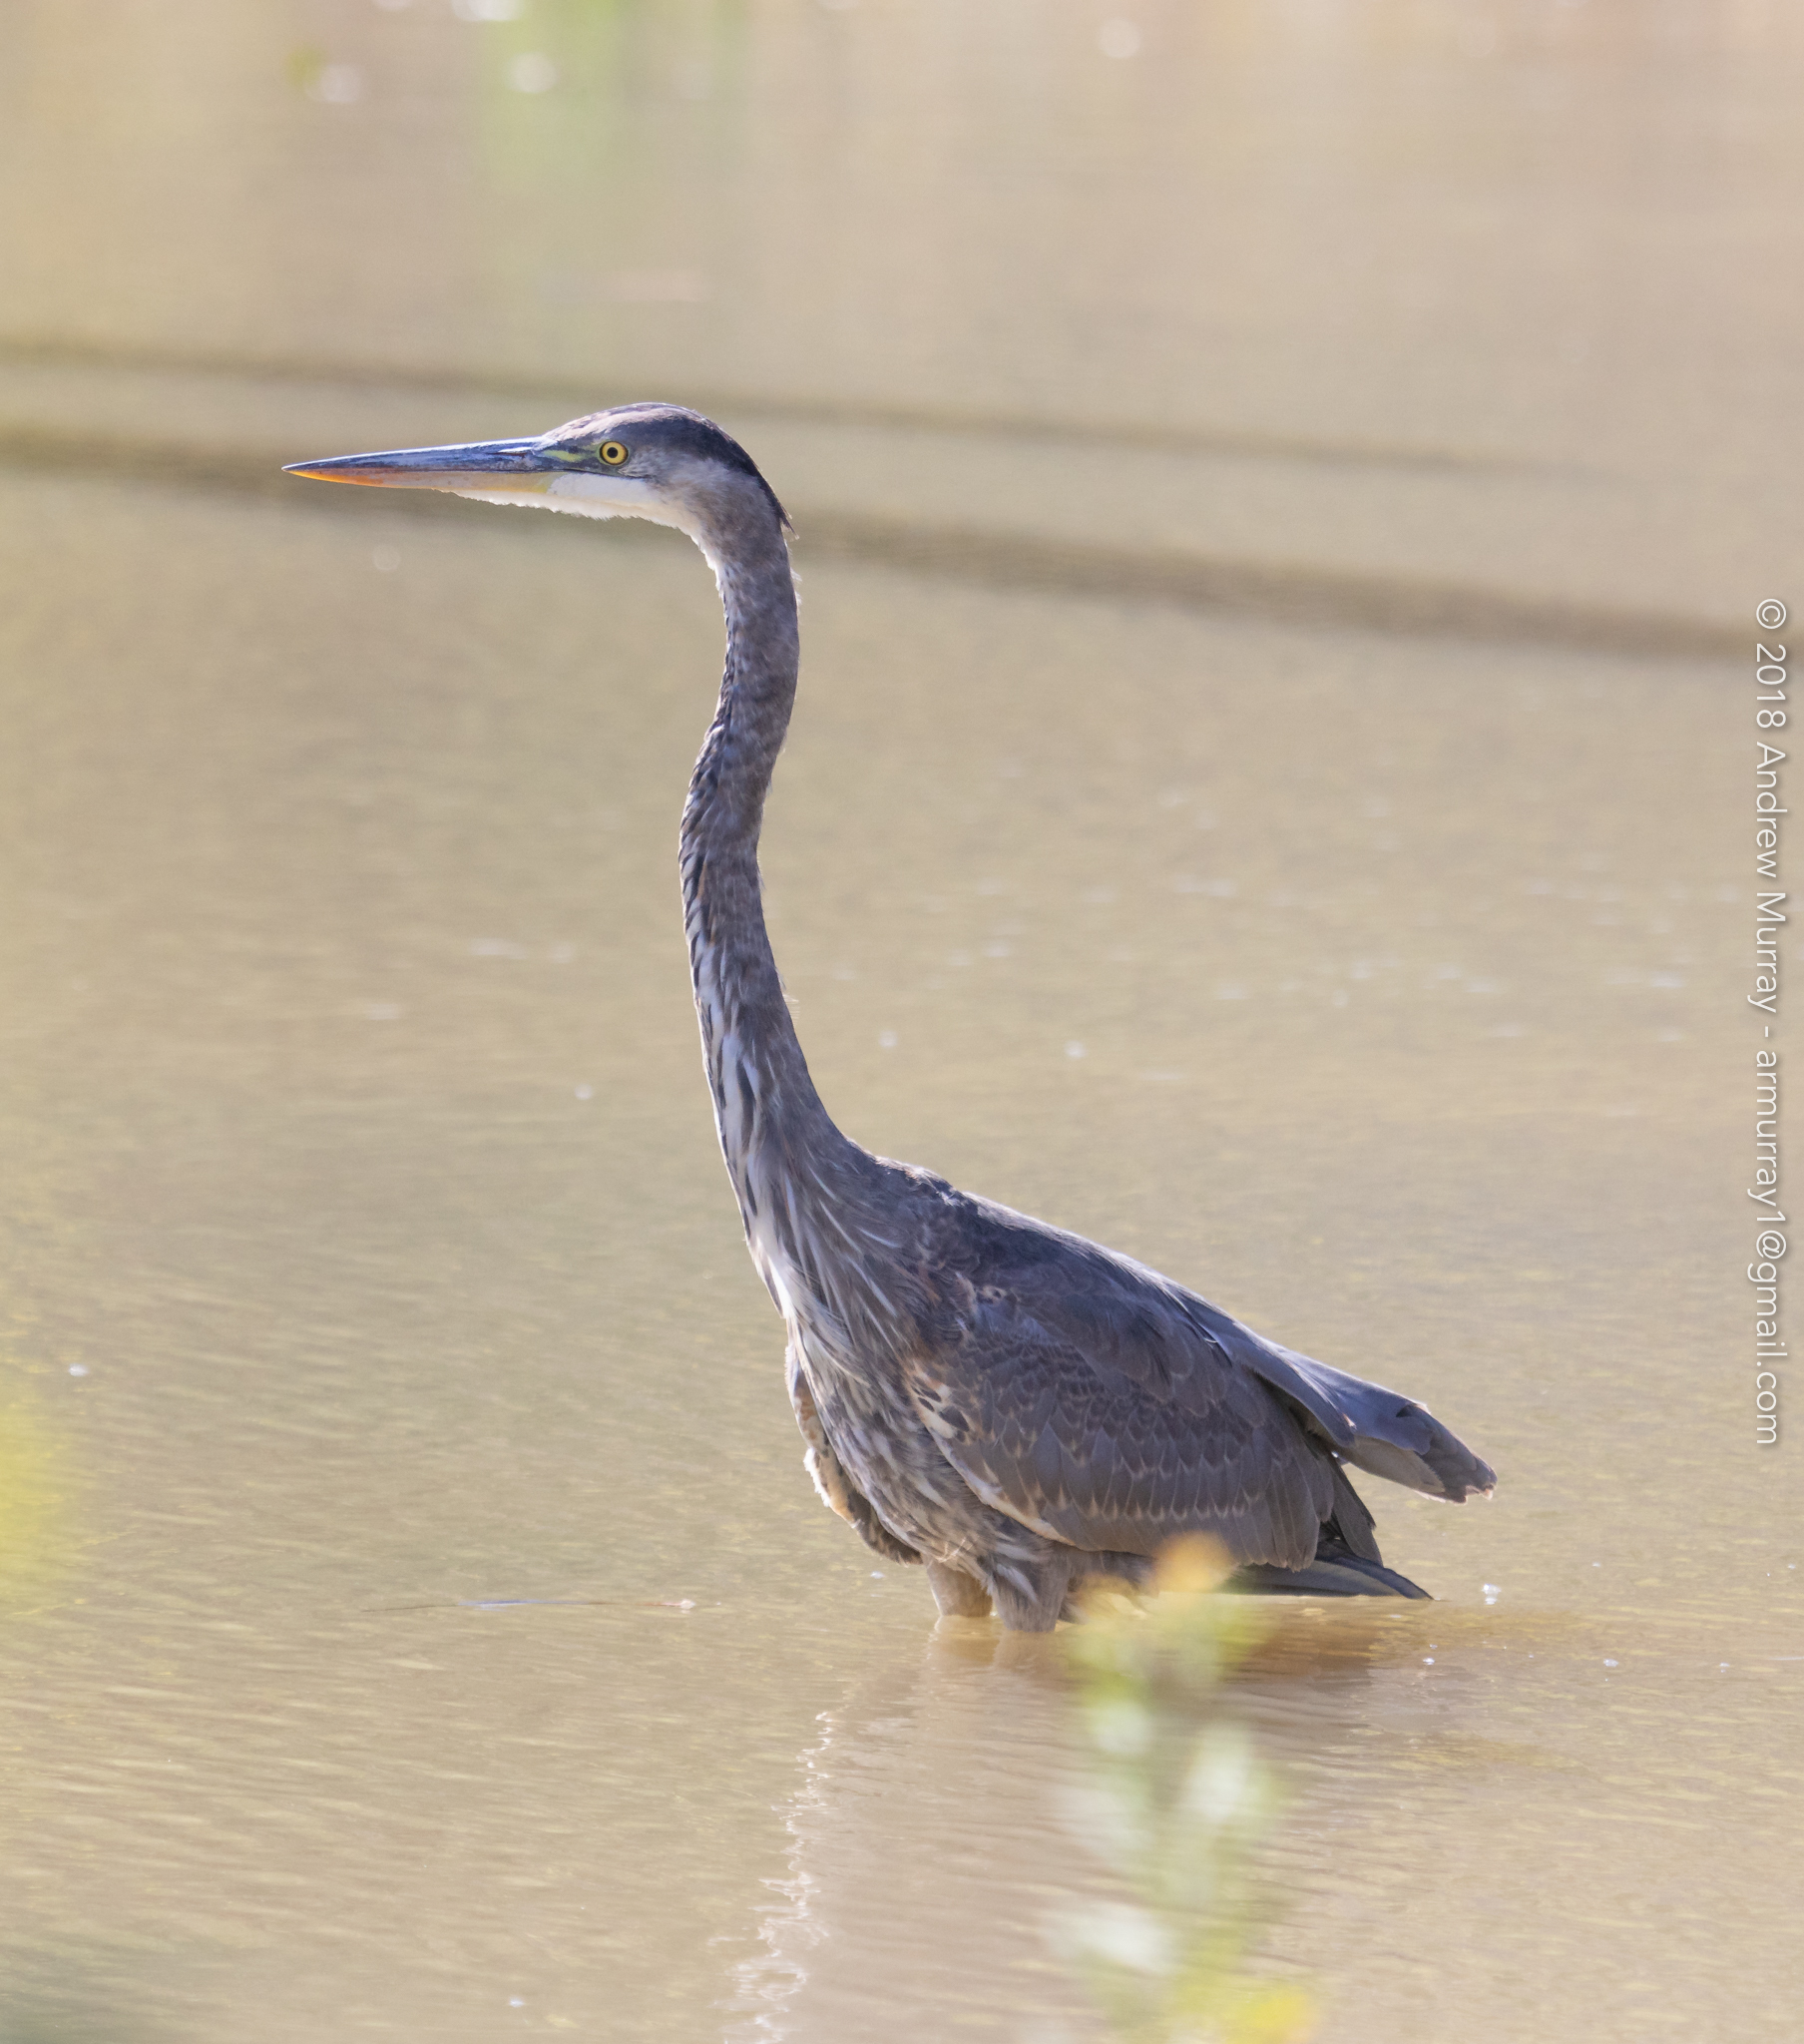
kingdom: Animalia
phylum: Chordata
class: Aves
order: Pelecaniformes
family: Ardeidae
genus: Ardea
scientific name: Ardea herodias
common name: Great blue heron
